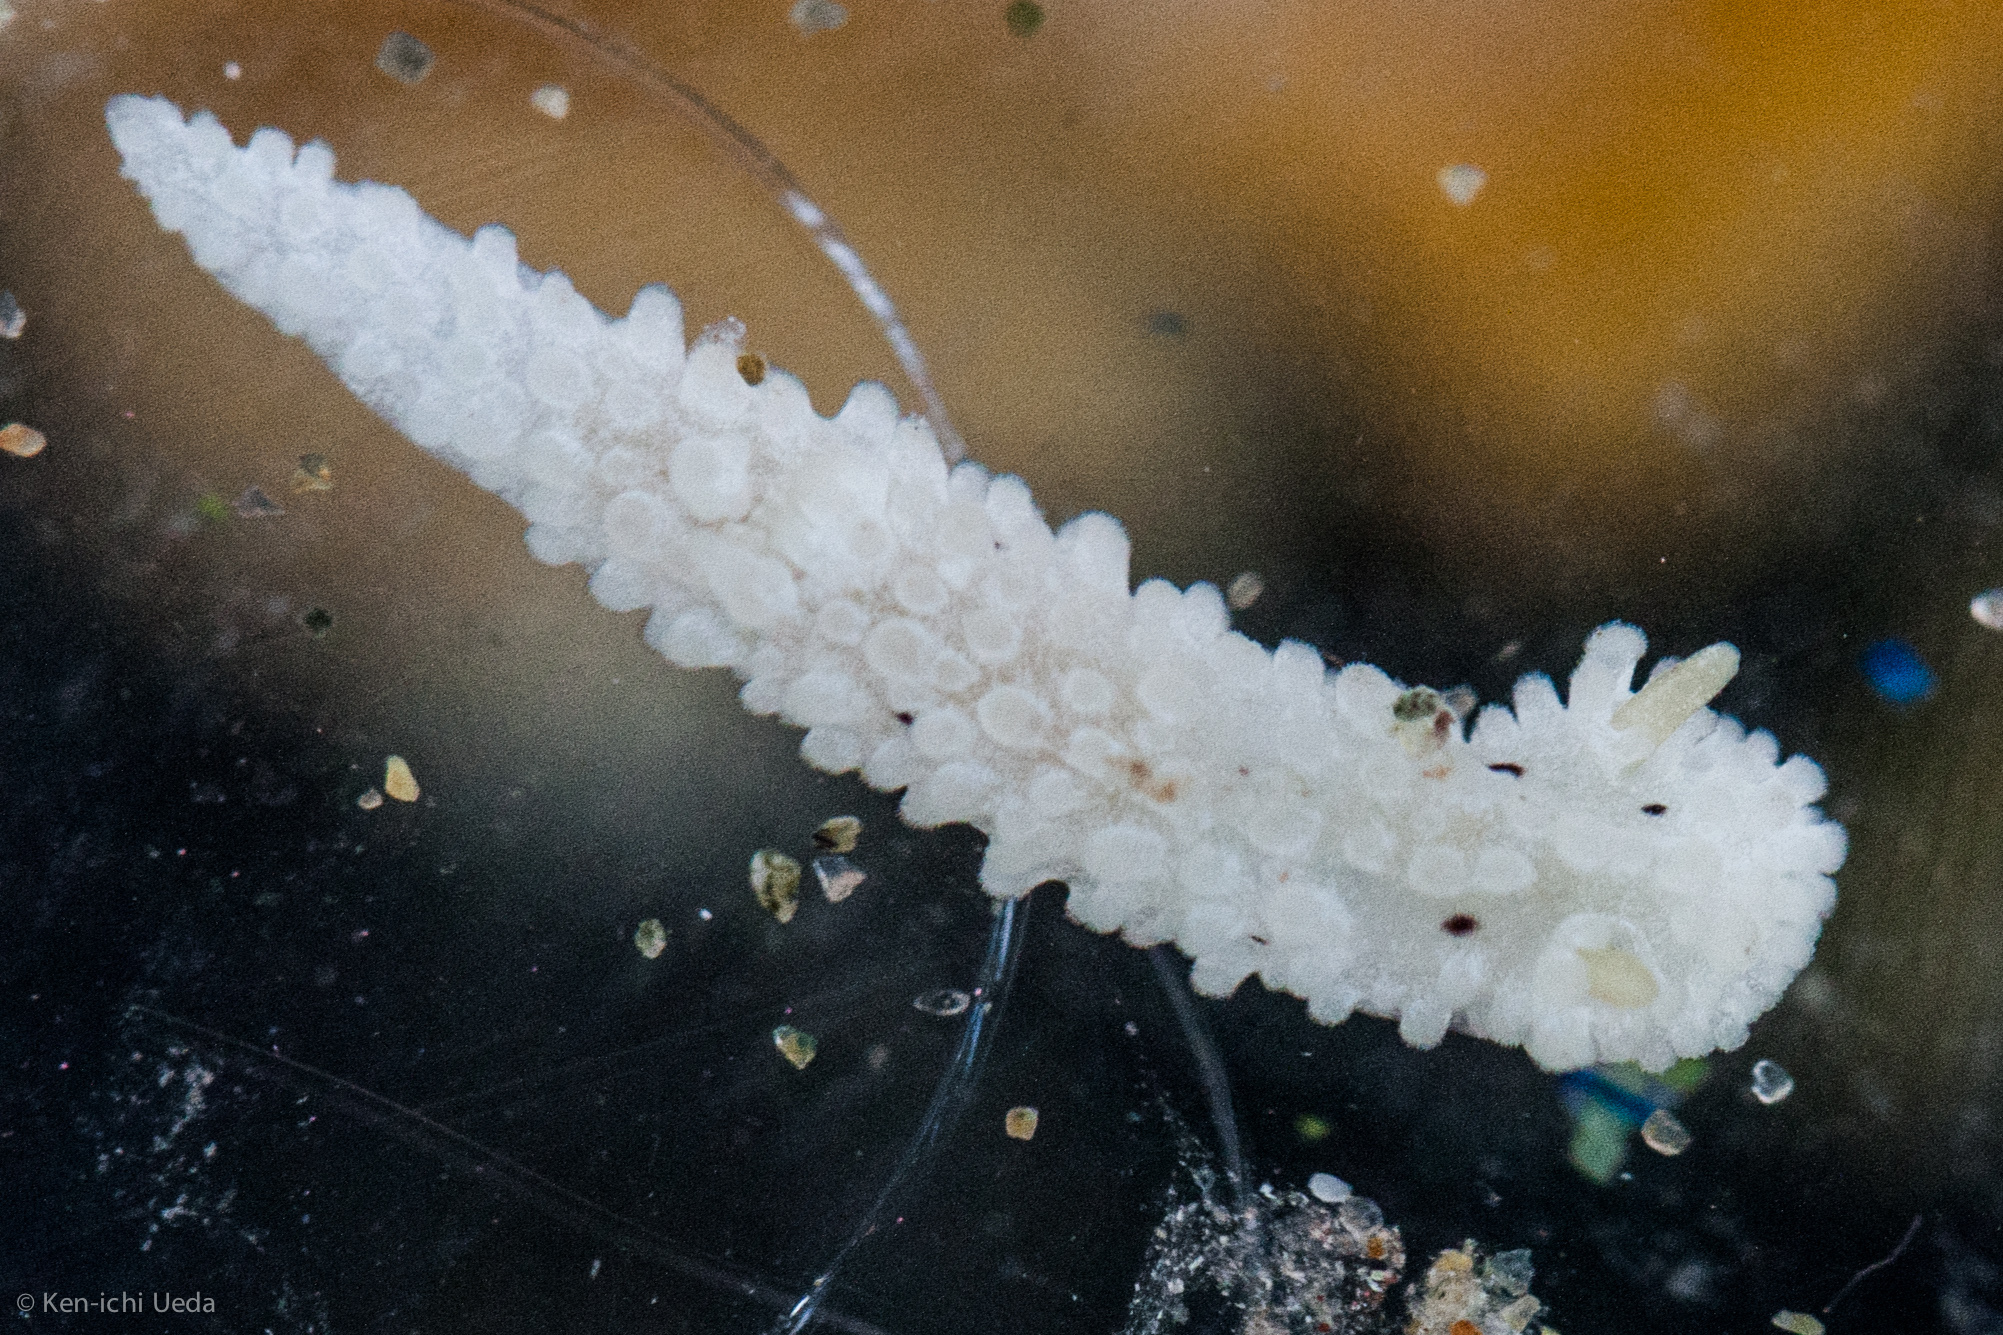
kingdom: Animalia
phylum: Mollusca
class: Gastropoda
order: Nudibranchia
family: Aegiridae
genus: Aegires
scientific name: Aegires albopunctatus
